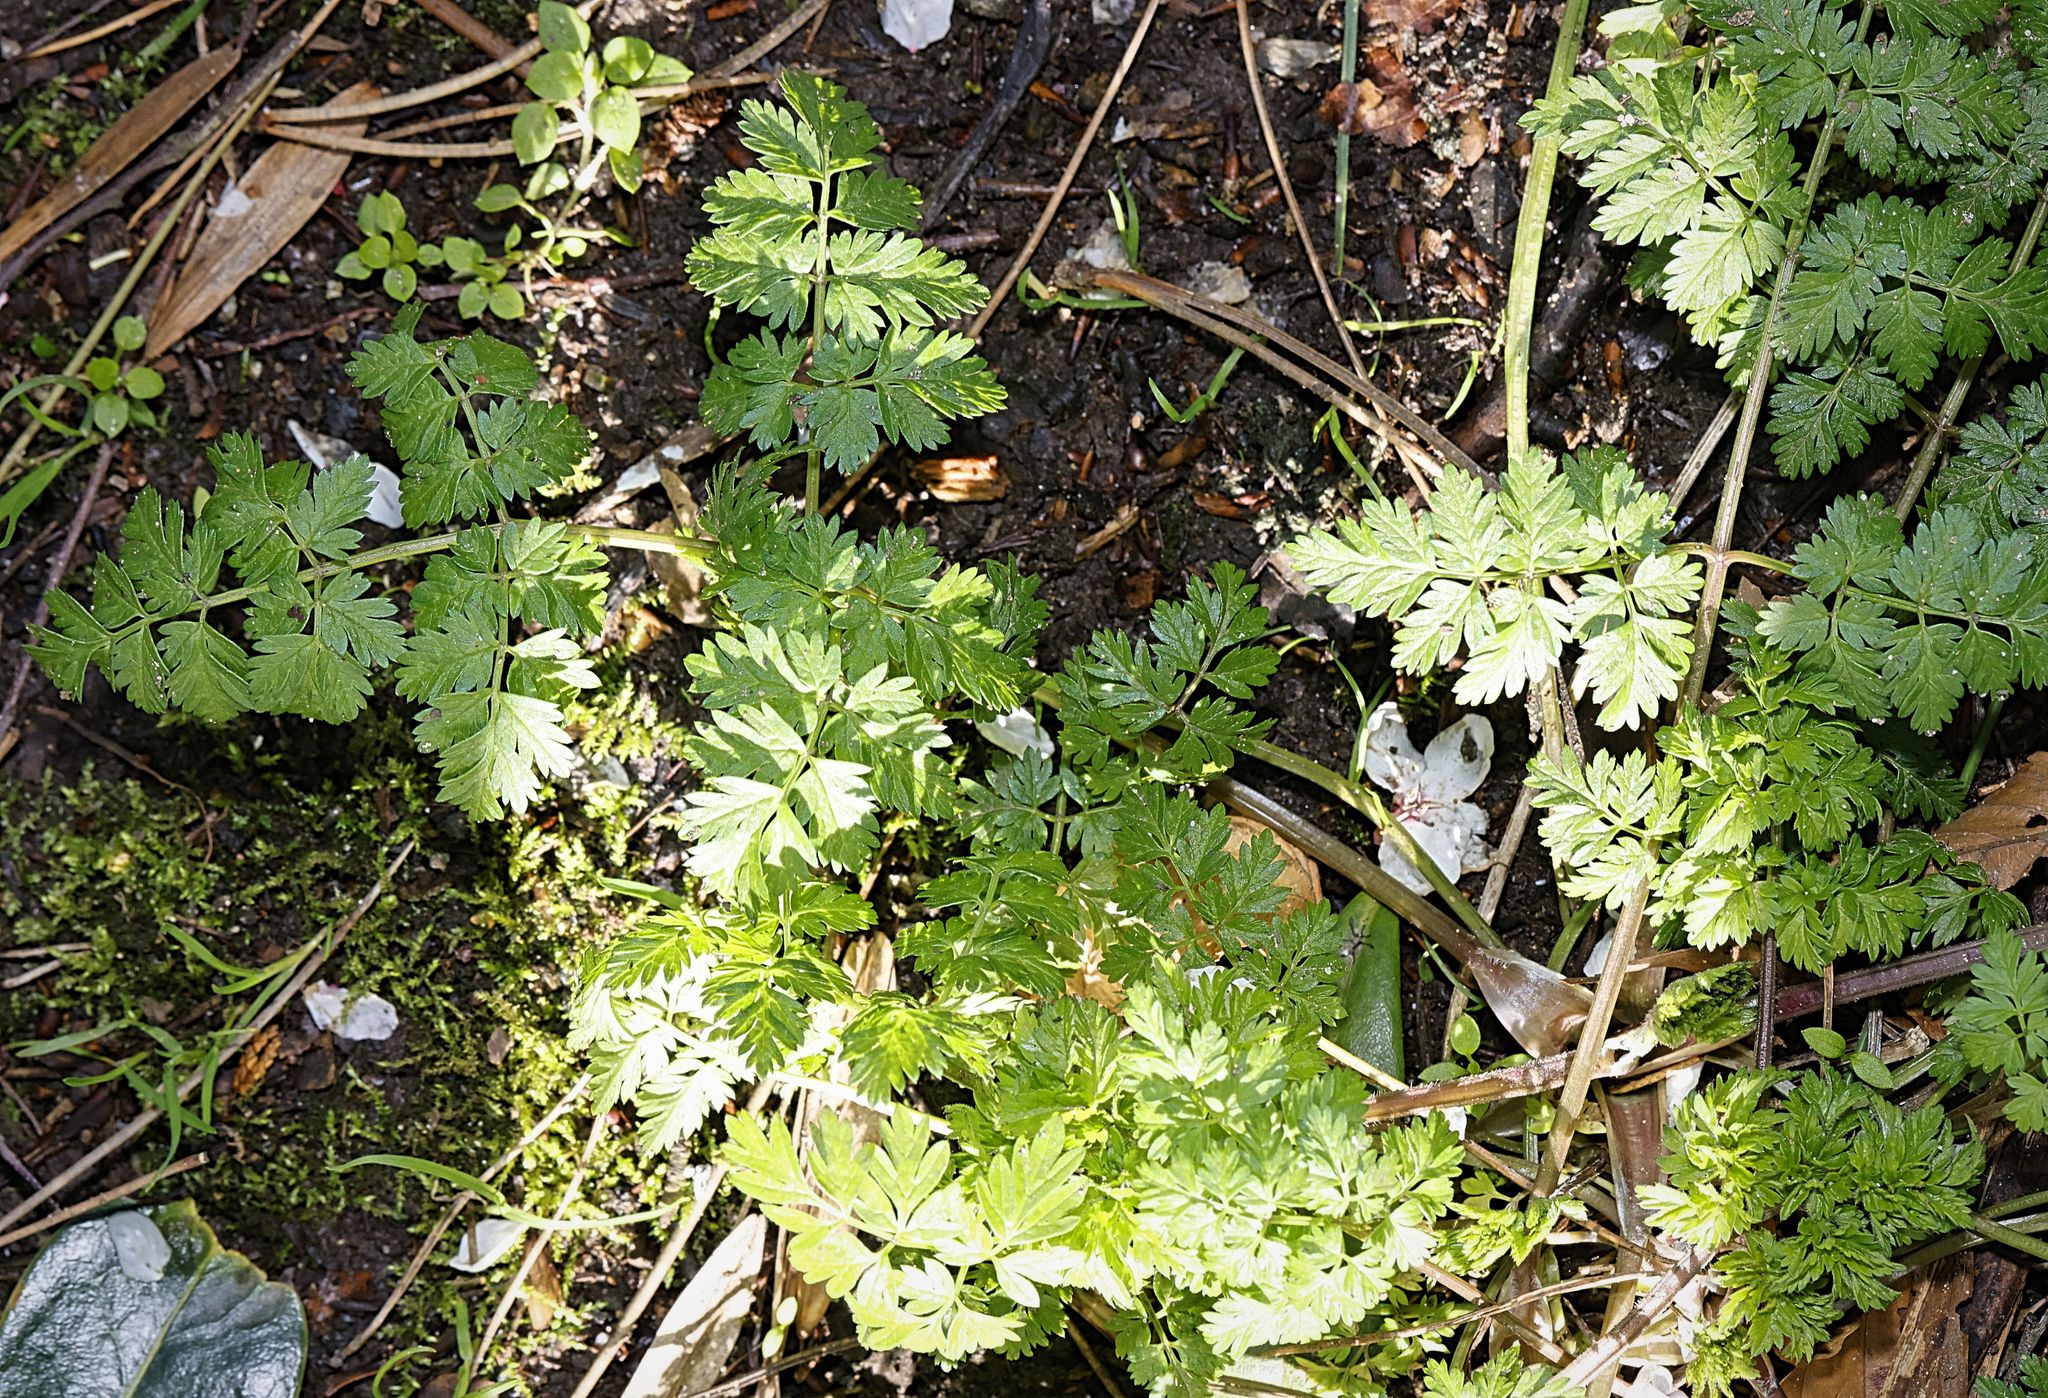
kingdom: Plantae
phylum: Tracheophyta
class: Magnoliopsida
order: Apiales
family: Apiaceae
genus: Anthriscus
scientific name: Anthriscus sylvestris
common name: Cow parsley
